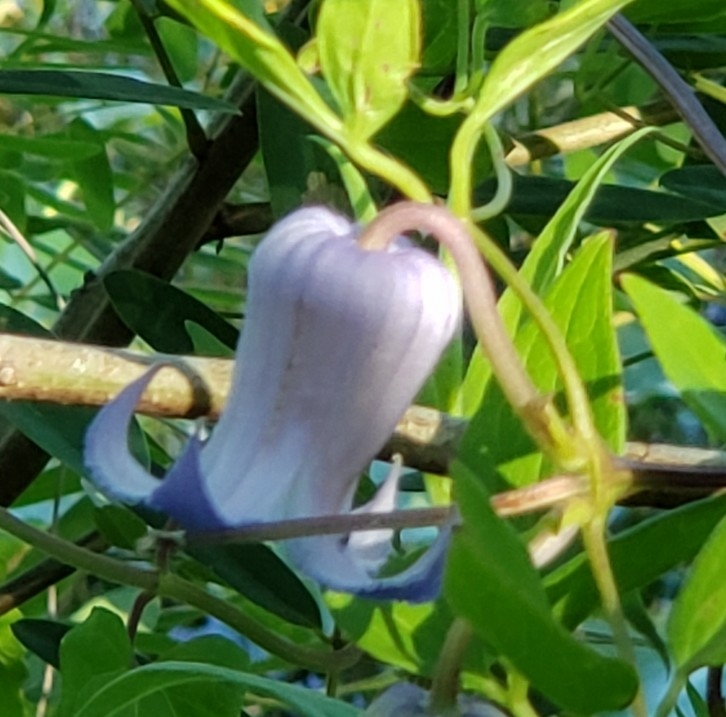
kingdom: Plantae
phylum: Tracheophyta
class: Magnoliopsida
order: Ranunculales
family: Ranunculaceae
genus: Clematis
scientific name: Clematis crispa
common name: Curly clematis
